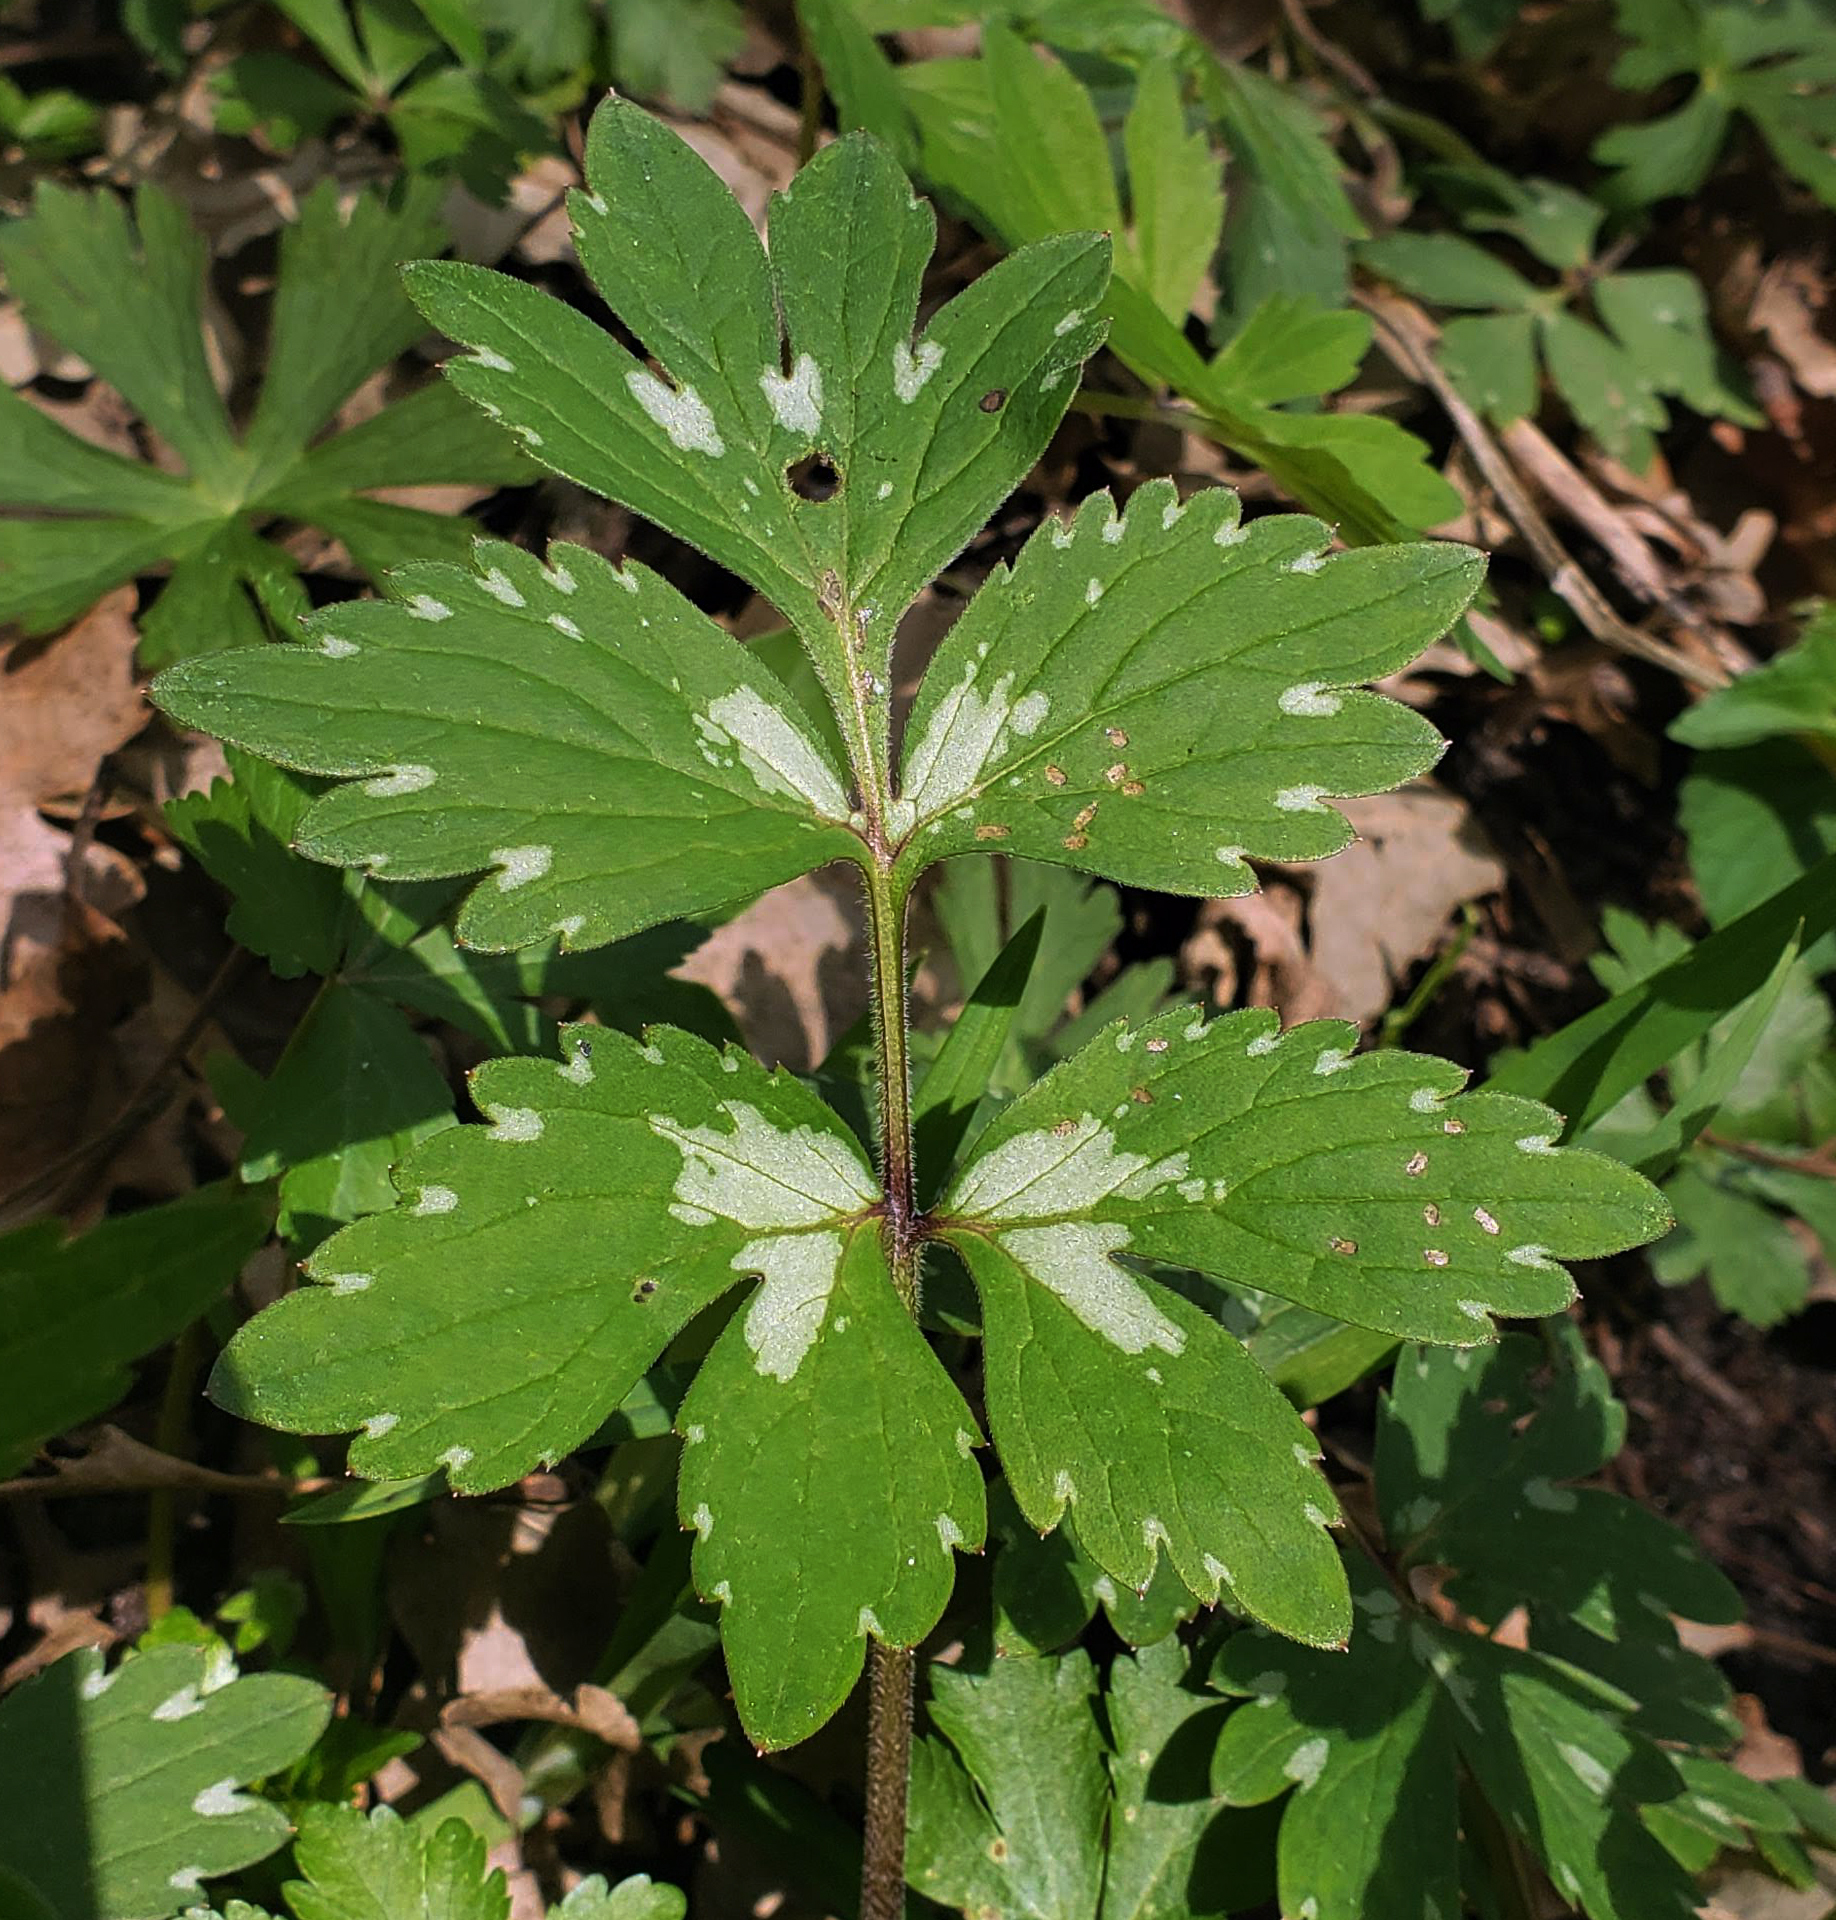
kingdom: Plantae
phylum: Tracheophyta
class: Magnoliopsida
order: Boraginales
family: Hydrophyllaceae
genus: Hydrophyllum
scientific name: Hydrophyllum virginianum
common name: Virginia waterleaf
